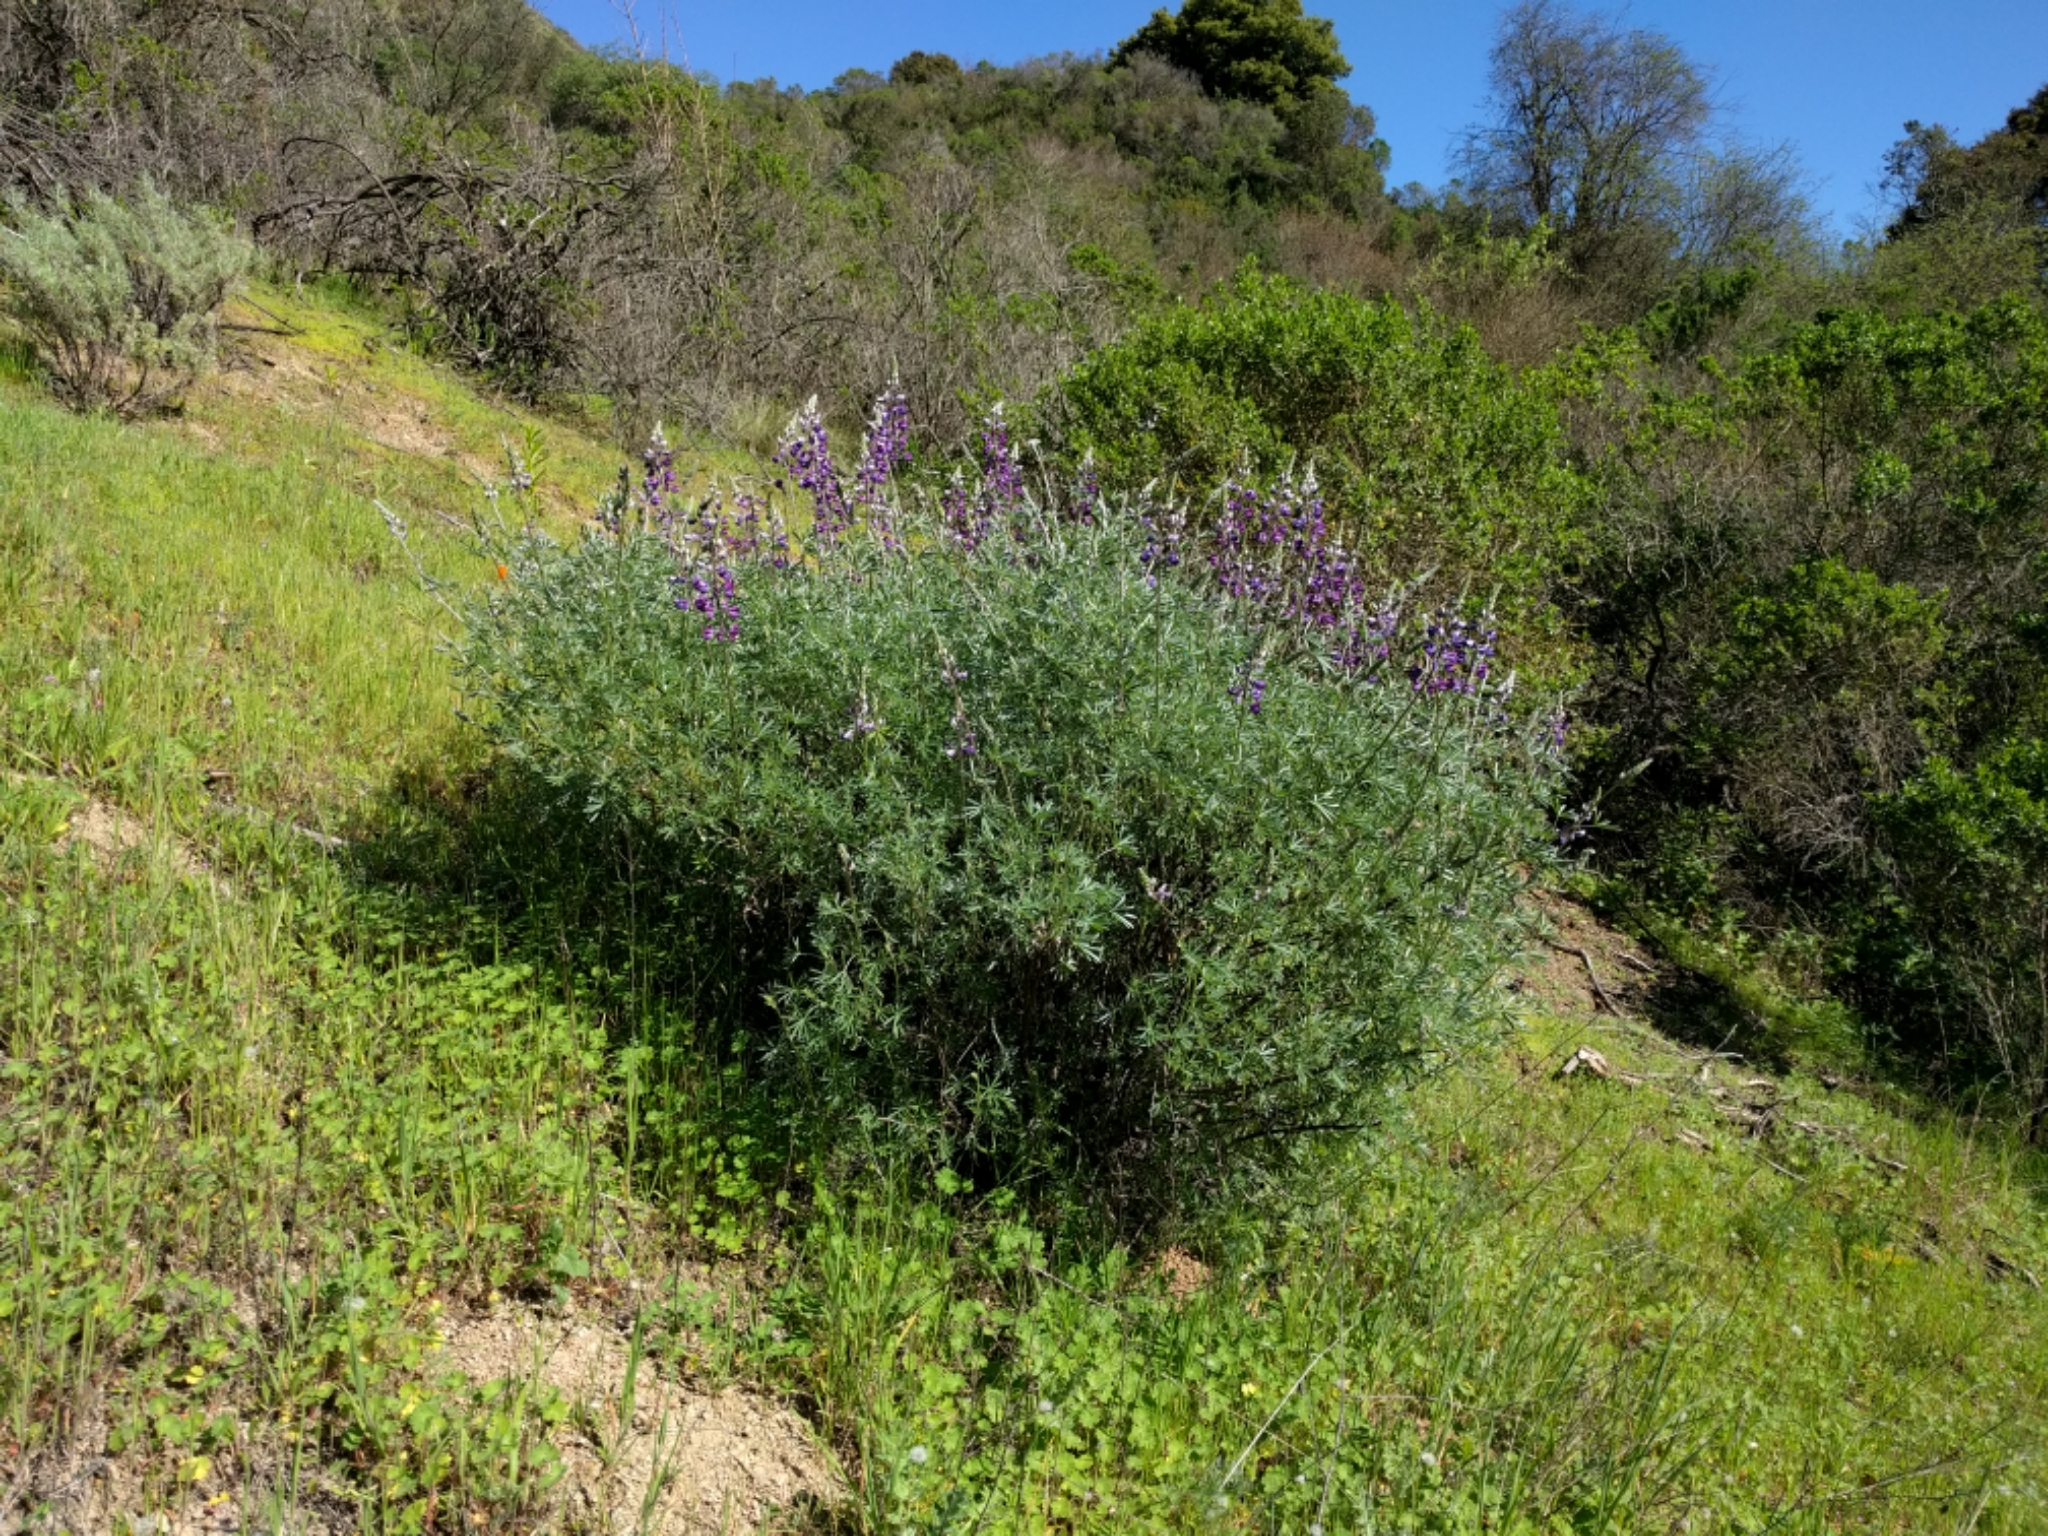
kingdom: Plantae
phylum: Tracheophyta
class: Magnoliopsida
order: Fabales
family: Fabaceae
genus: Lupinus
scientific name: Lupinus albifrons
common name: Foothill lupine
